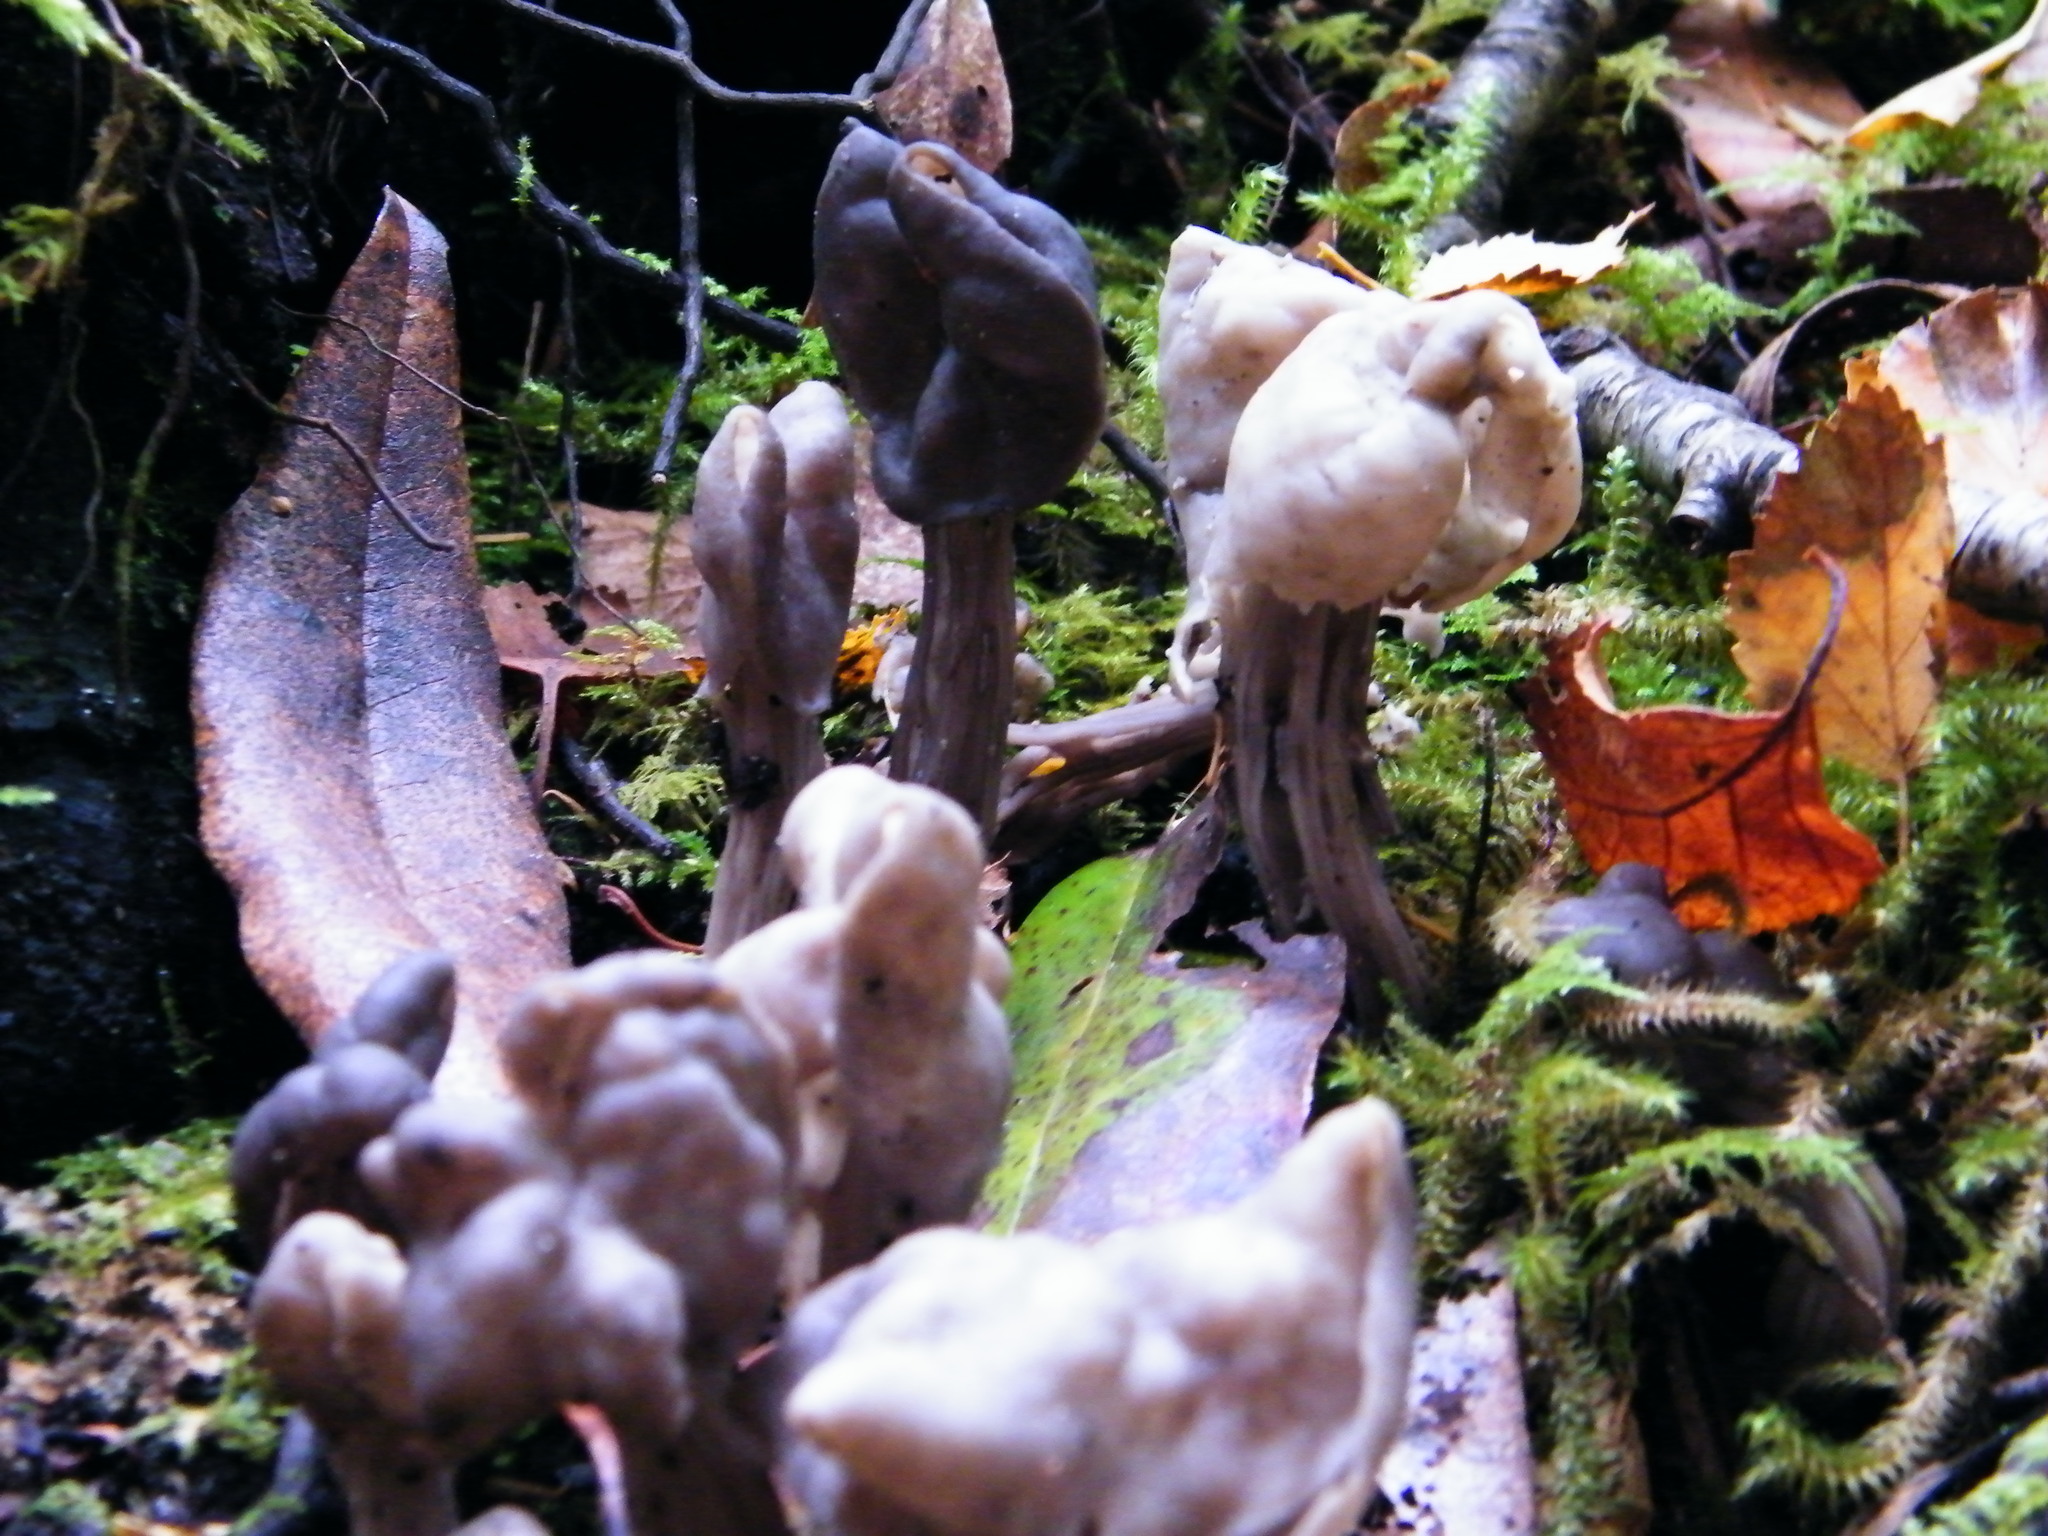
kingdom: Fungi
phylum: Ascomycota
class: Pezizomycetes
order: Pezizales
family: Helvellaceae
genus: Helvella
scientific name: Helvella lacunosa
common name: Elfin saddle
